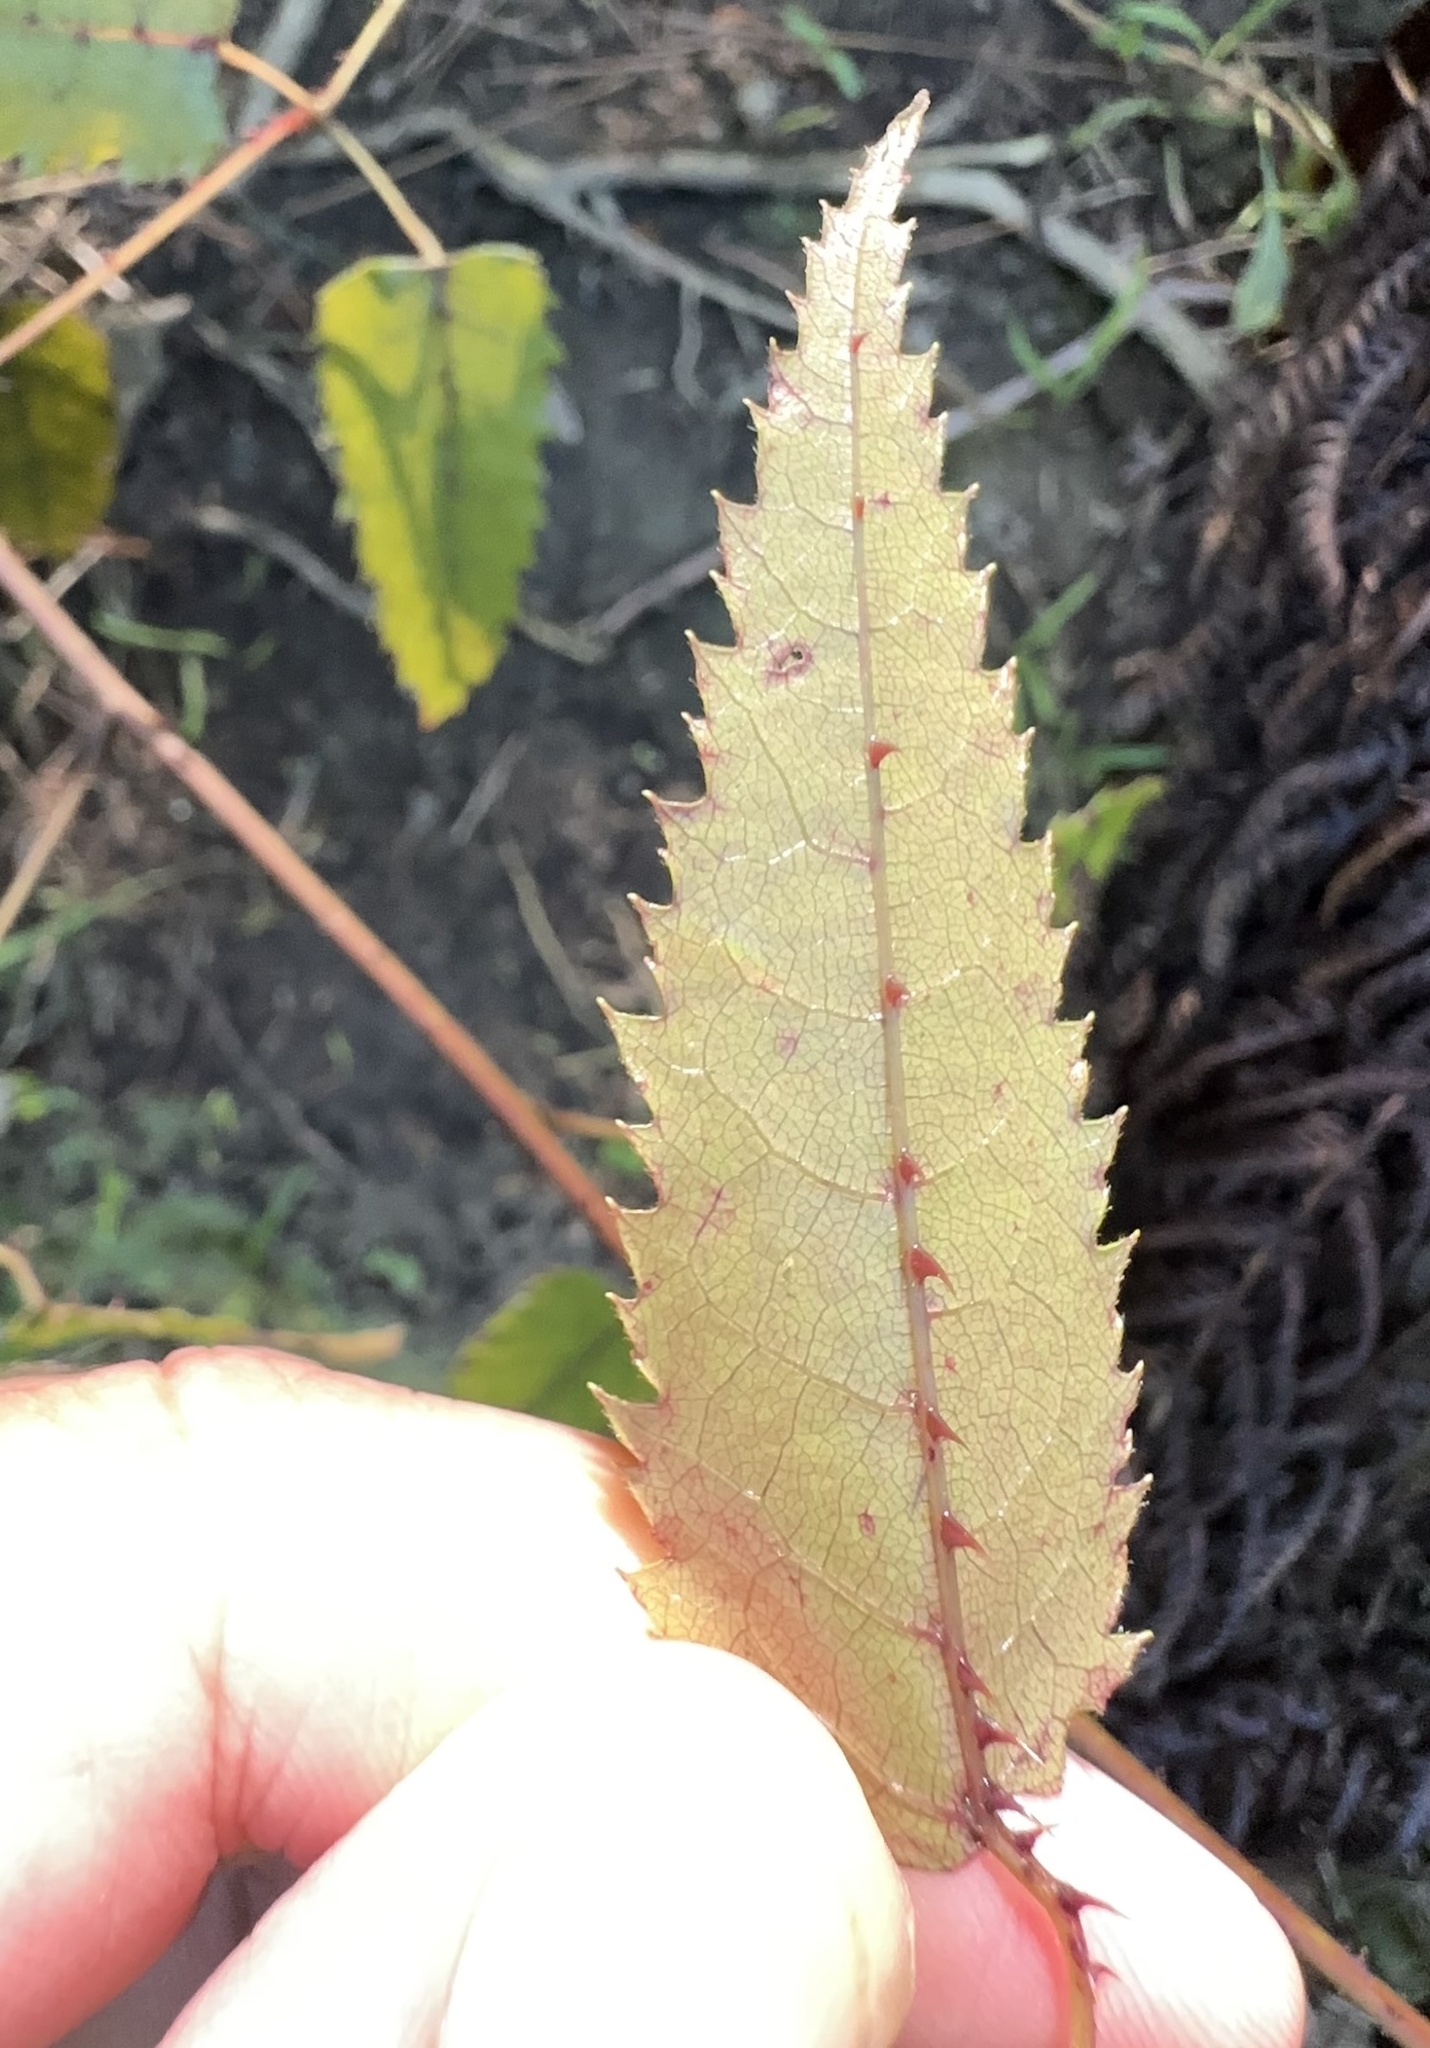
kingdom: Plantae
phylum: Tracheophyta
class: Magnoliopsida
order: Rosales
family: Rosaceae
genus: Rubus
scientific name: Rubus cissoides
